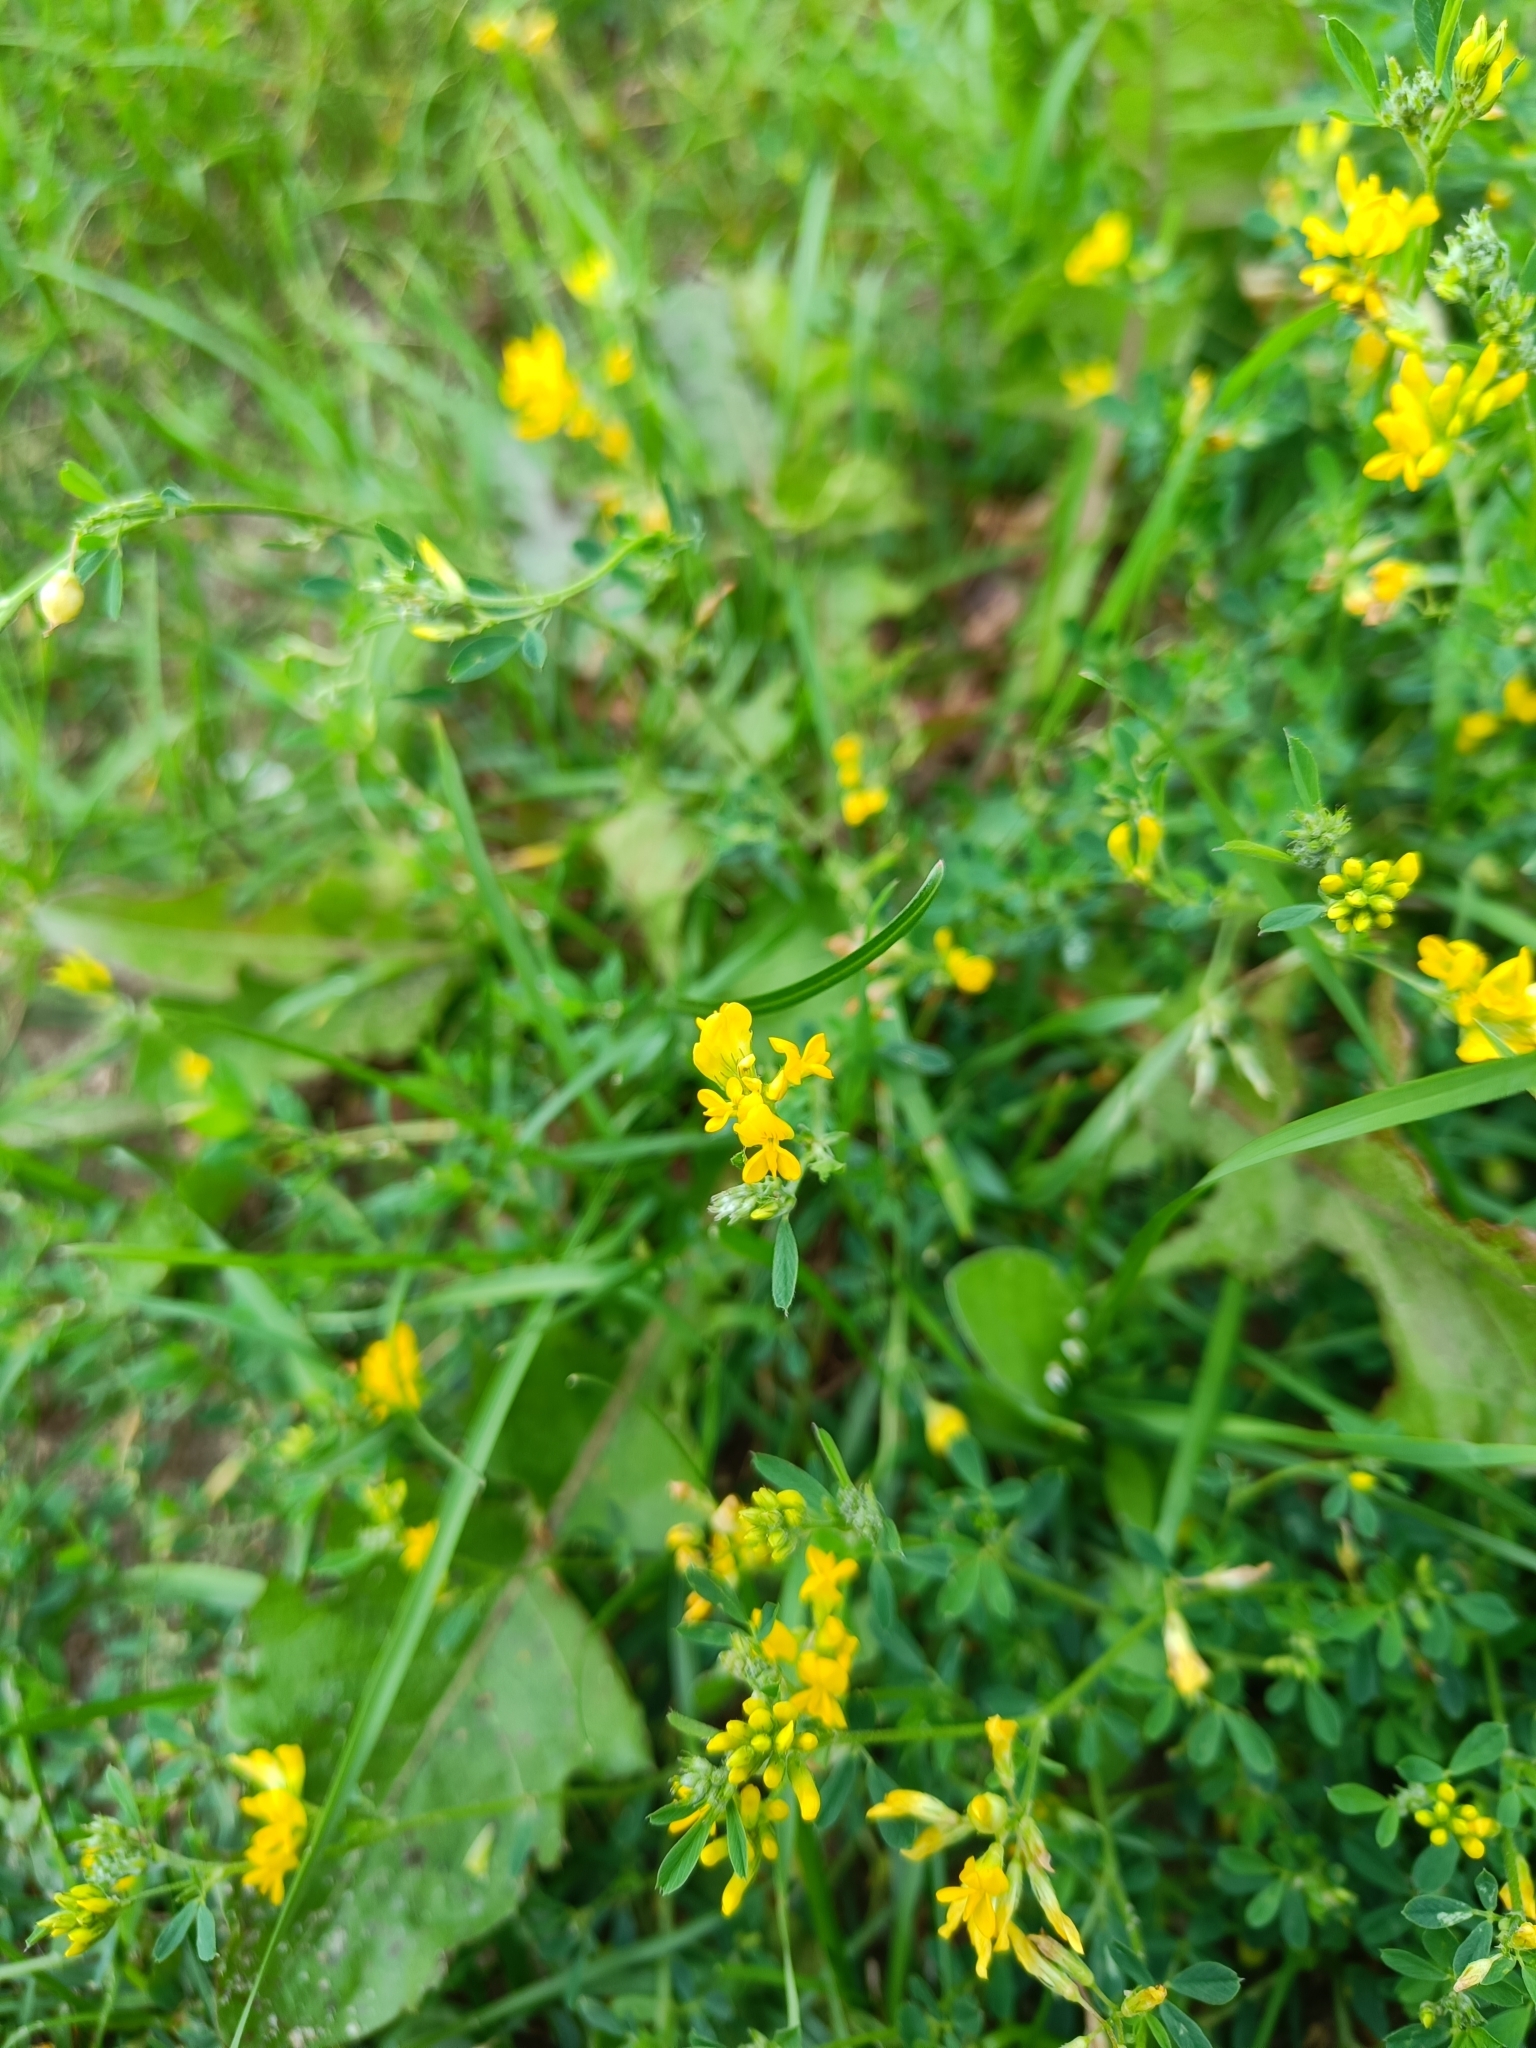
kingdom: Plantae
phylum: Tracheophyta
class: Magnoliopsida
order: Fabales
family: Fabaceae
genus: Medicago
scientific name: Medicago falcata
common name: Sickle medick
